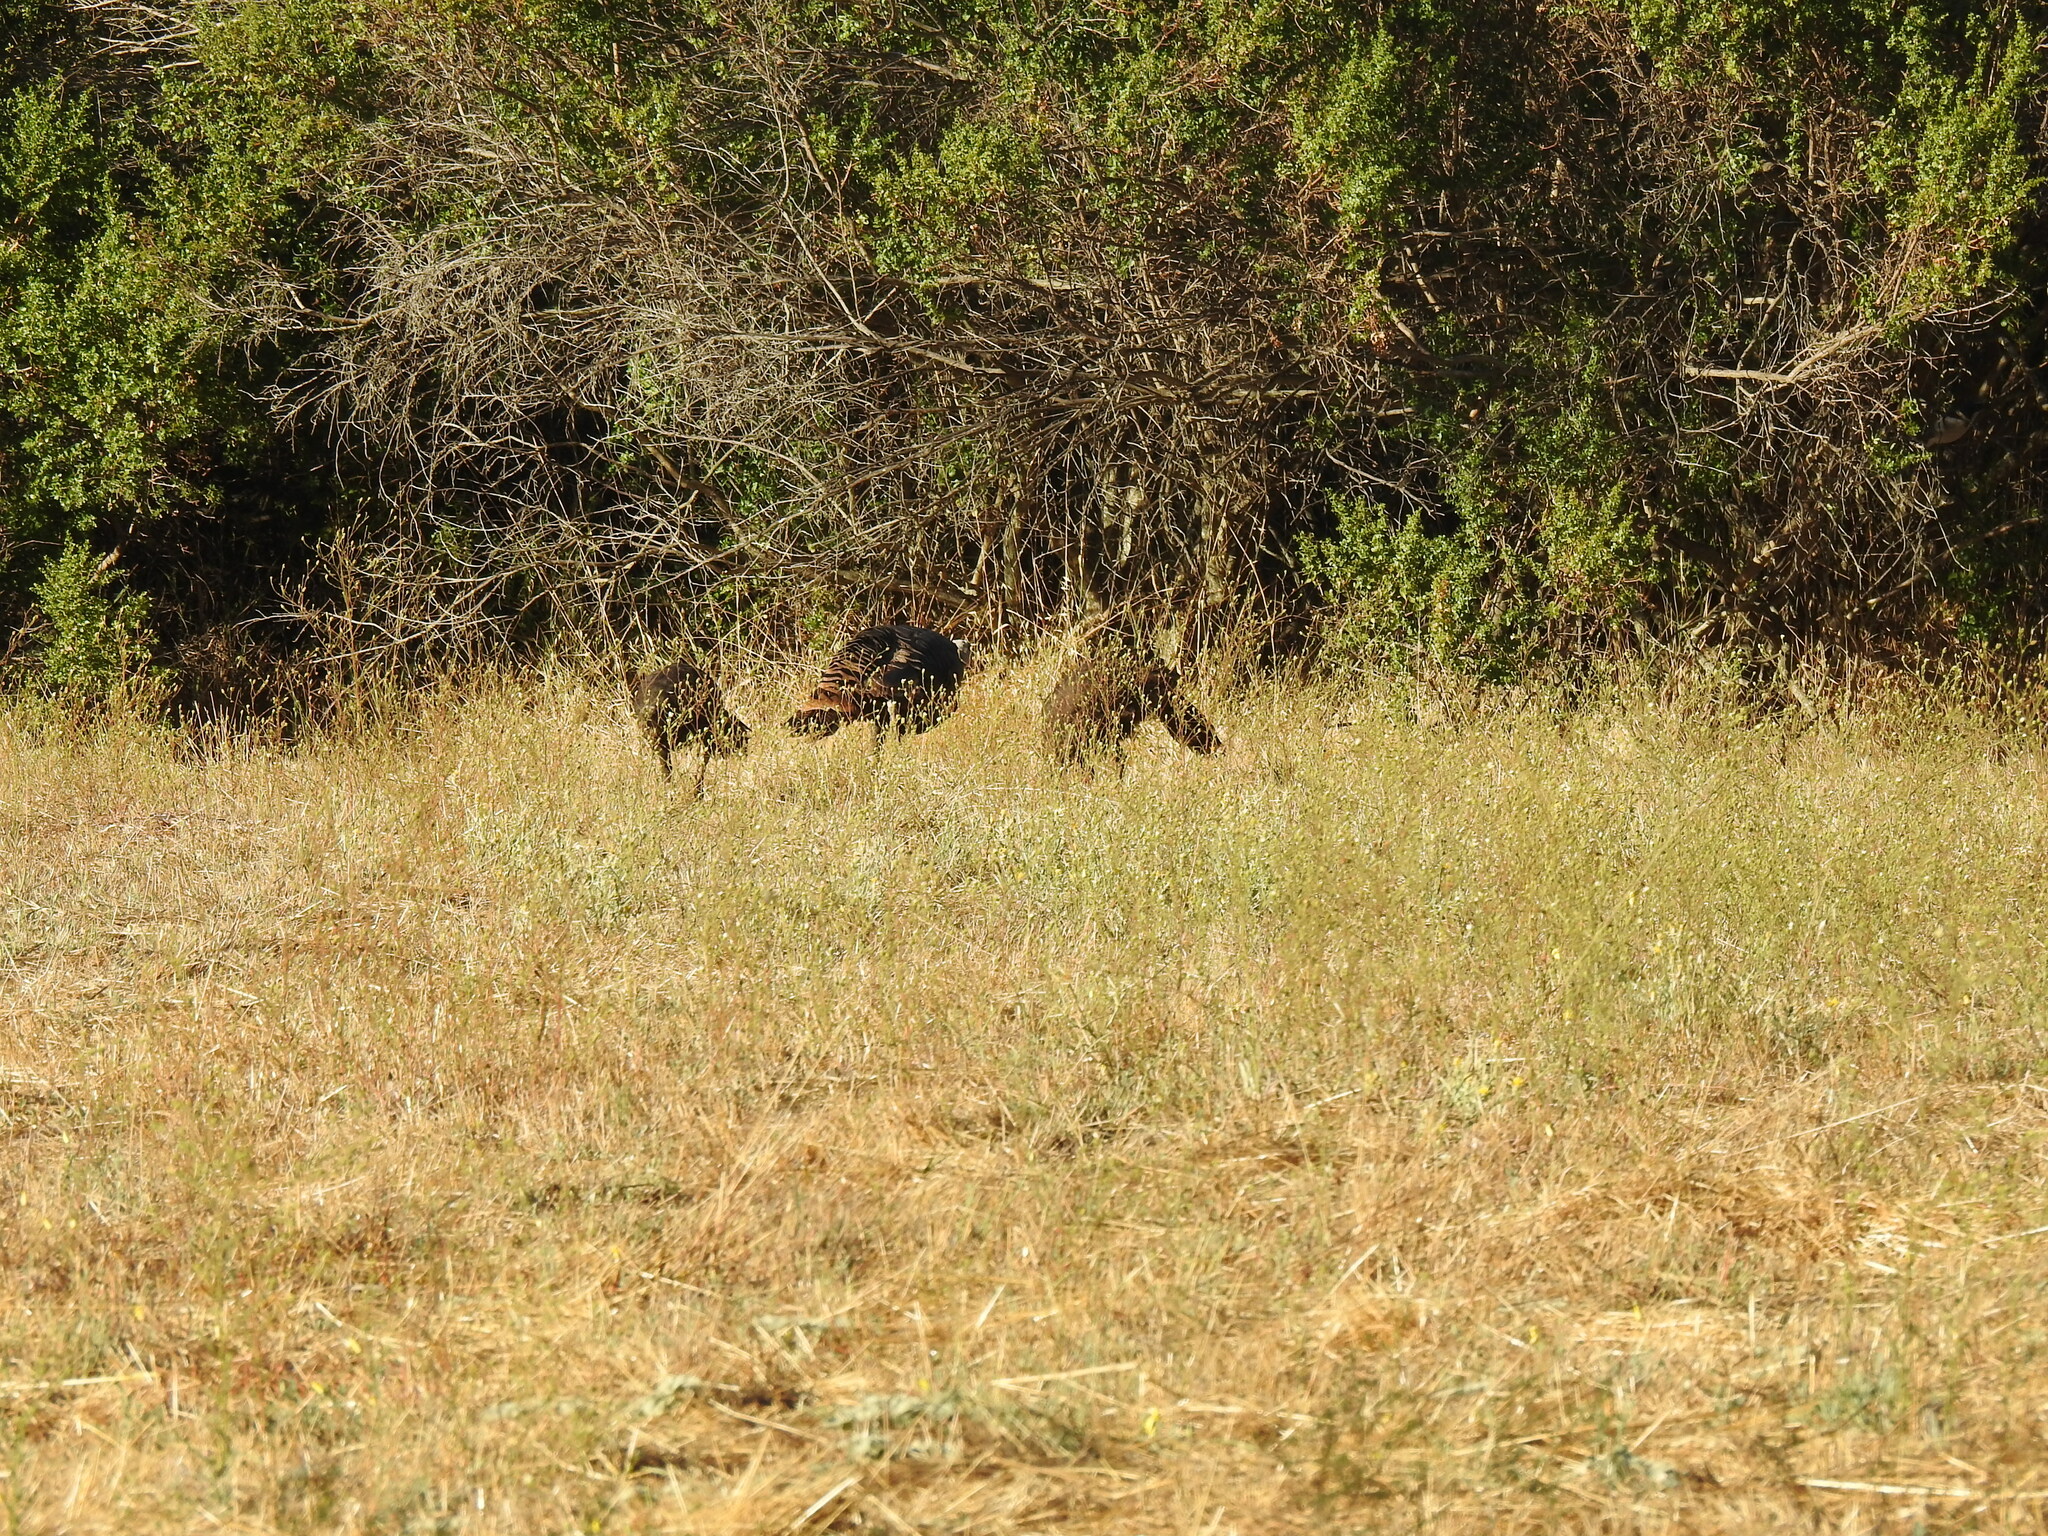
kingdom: Animalia
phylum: Chordata
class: Aves
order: Galliformes
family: Phasianidae
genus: Meleagris
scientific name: Meleagris gallopavo
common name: Wild turkey
